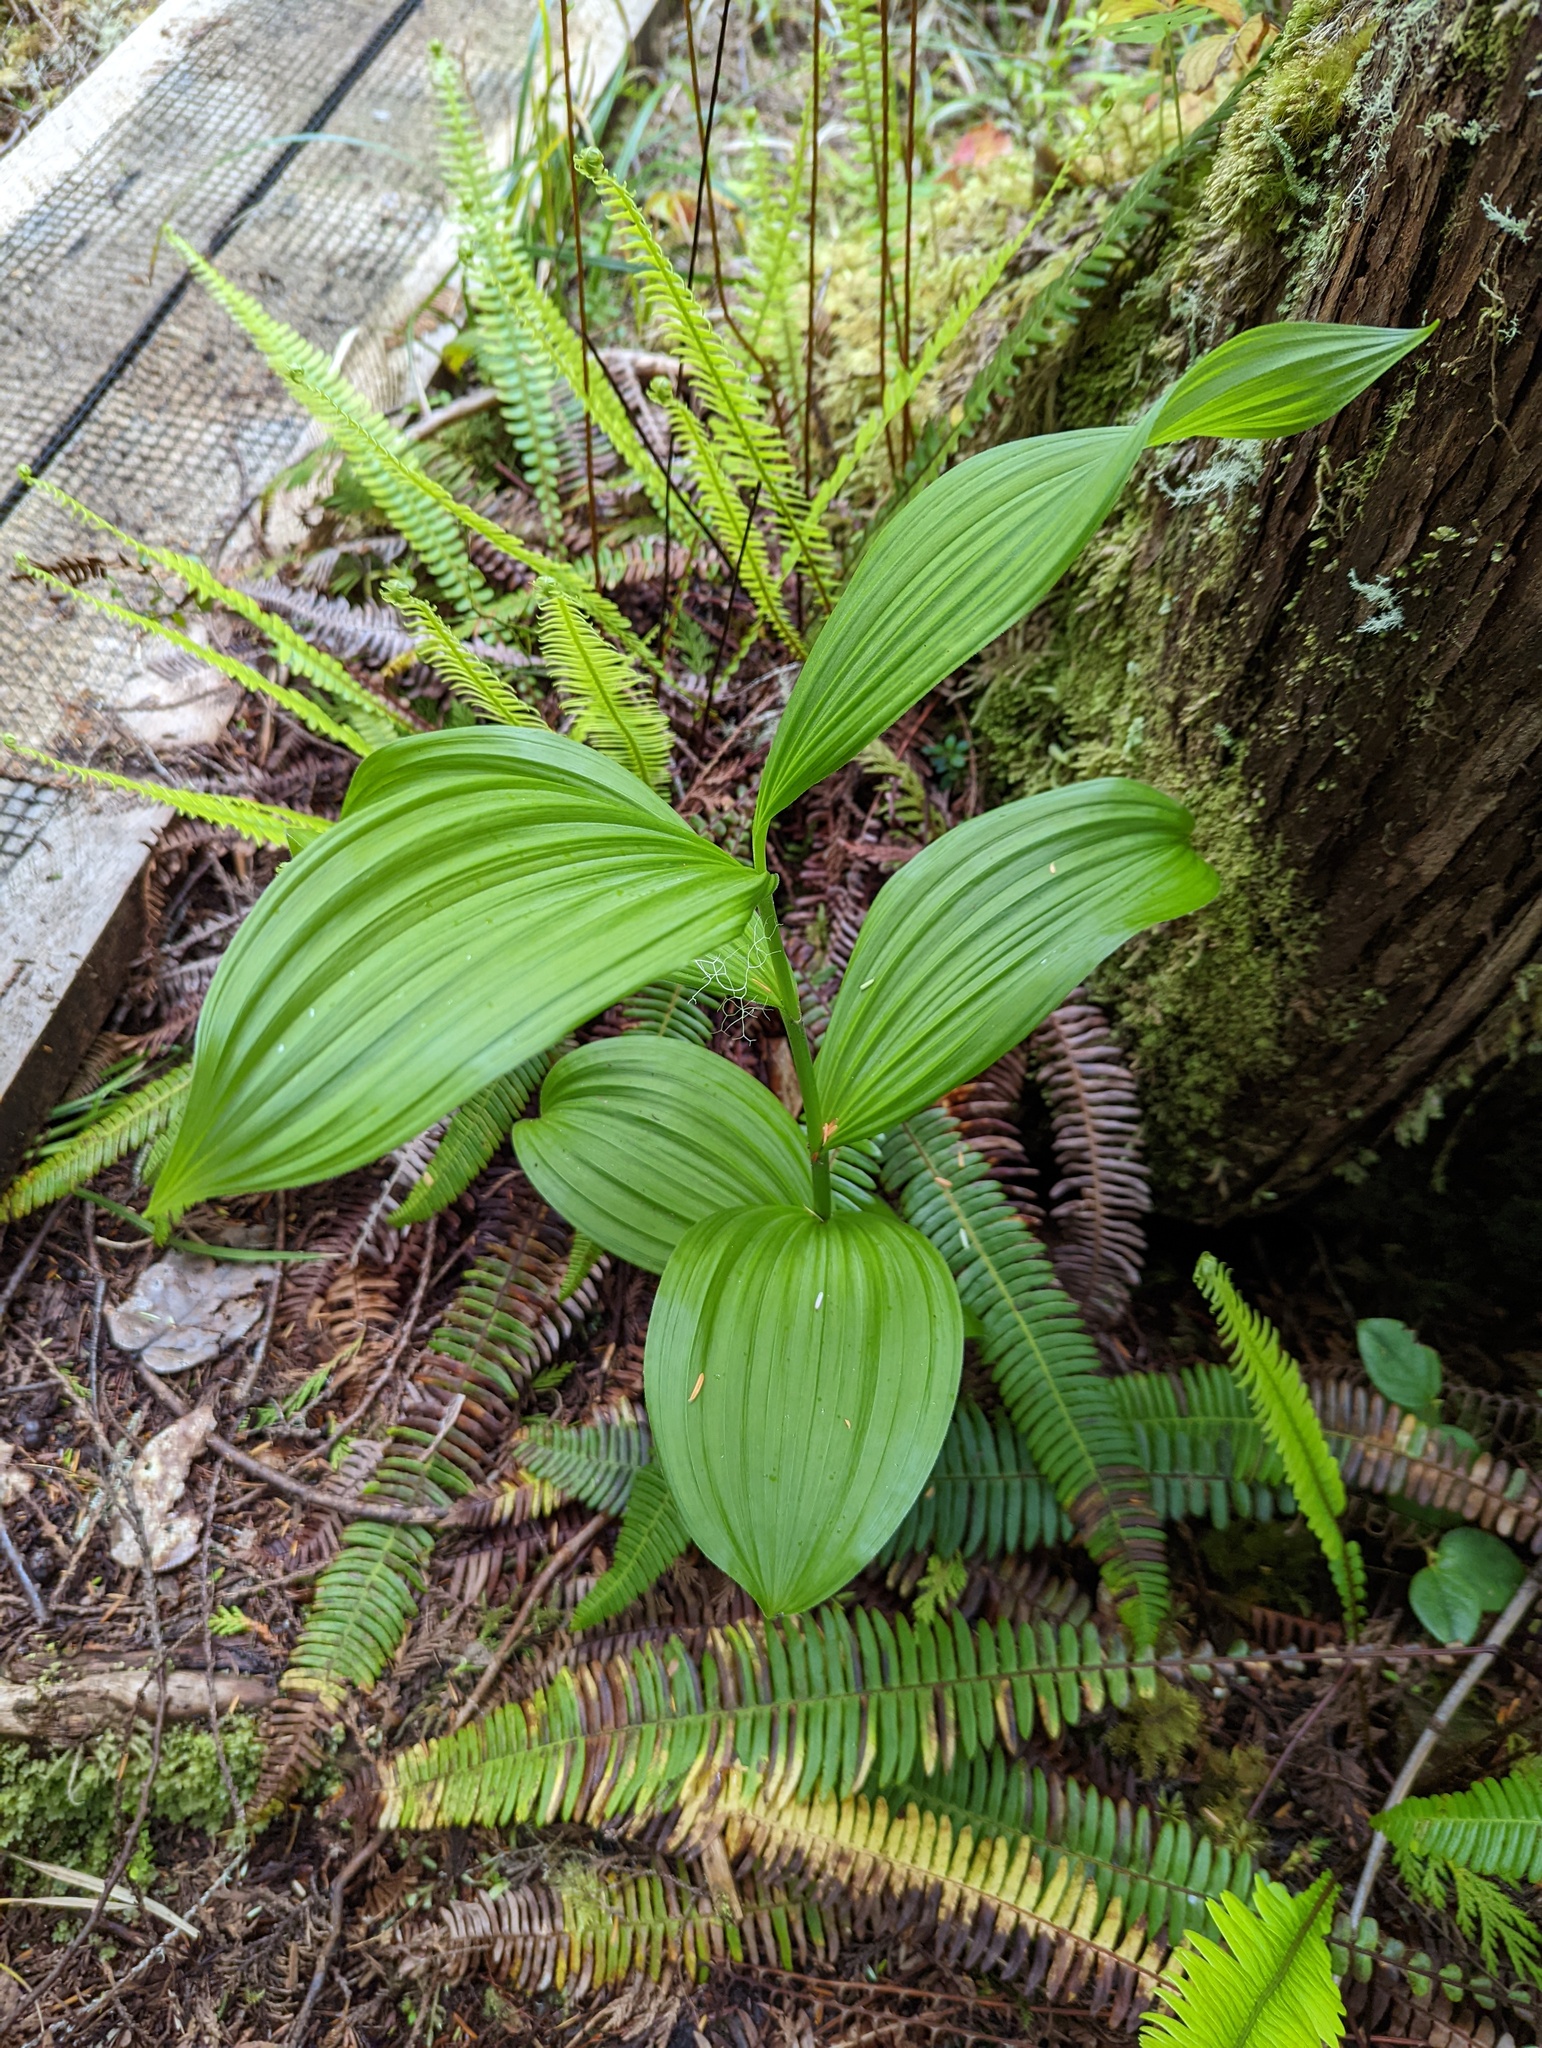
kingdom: Plantae
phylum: Tracheophyta
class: Liliopsida
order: Liliales
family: Melanthiaceae
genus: Veratrum
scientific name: Veratrum viride
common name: American false hellebore
